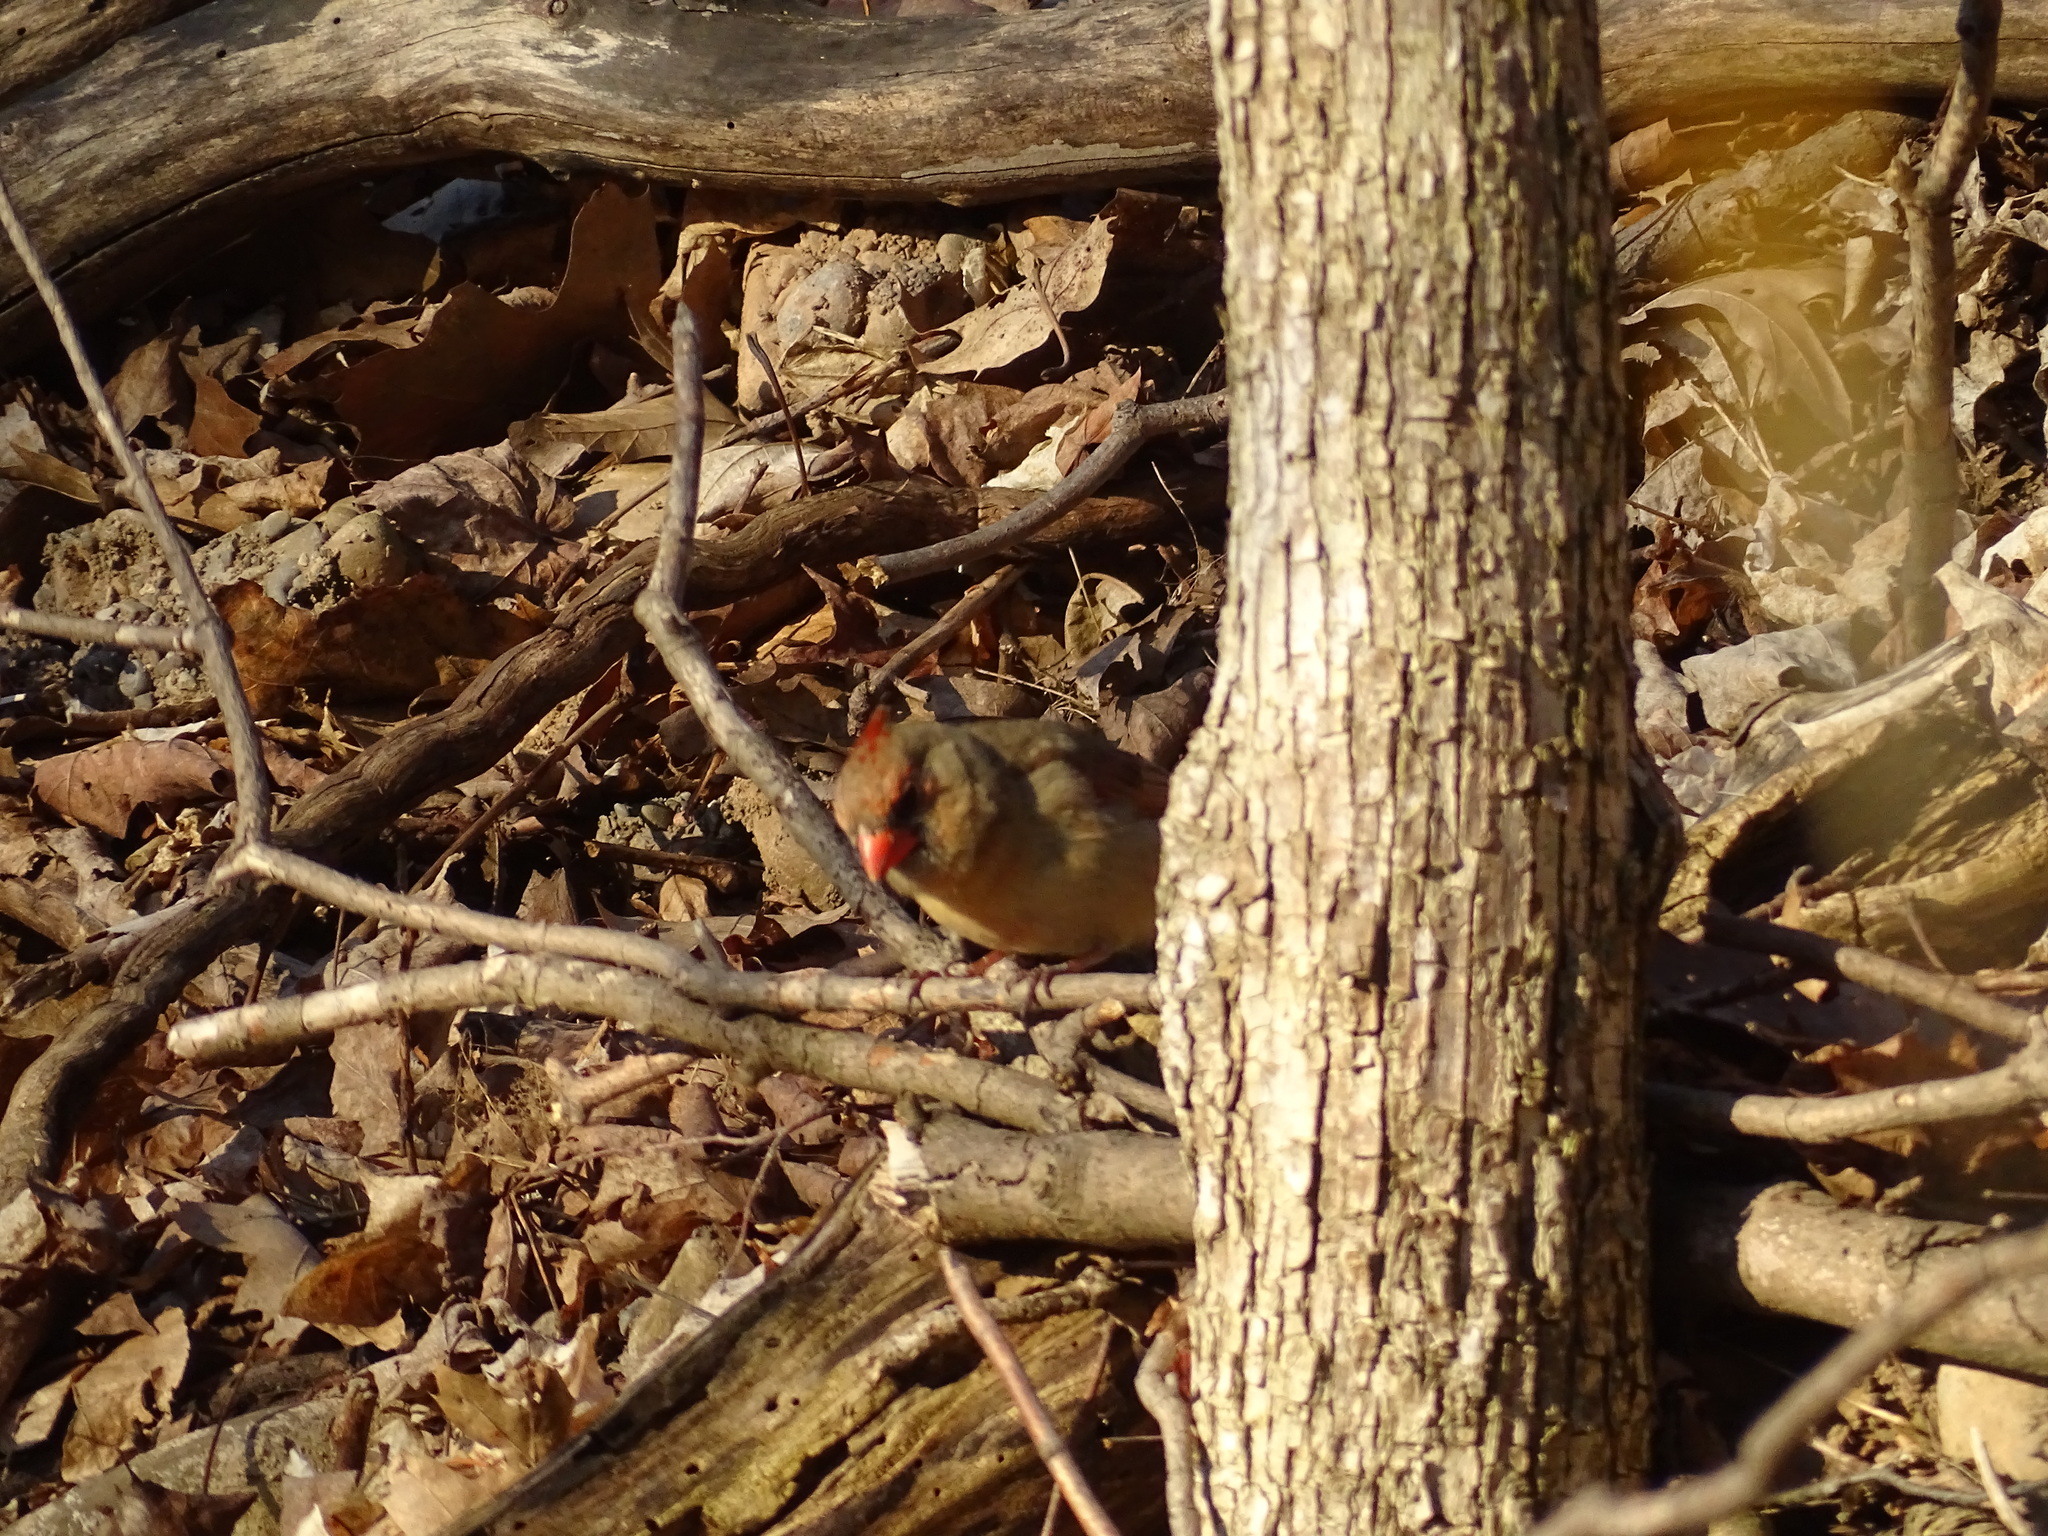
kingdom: Animalia
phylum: Chordata
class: Aves
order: Passeriformes
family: Cardinalidae
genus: Cardinalis
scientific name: Cardinalis cardinalis
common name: Northern cardinal
